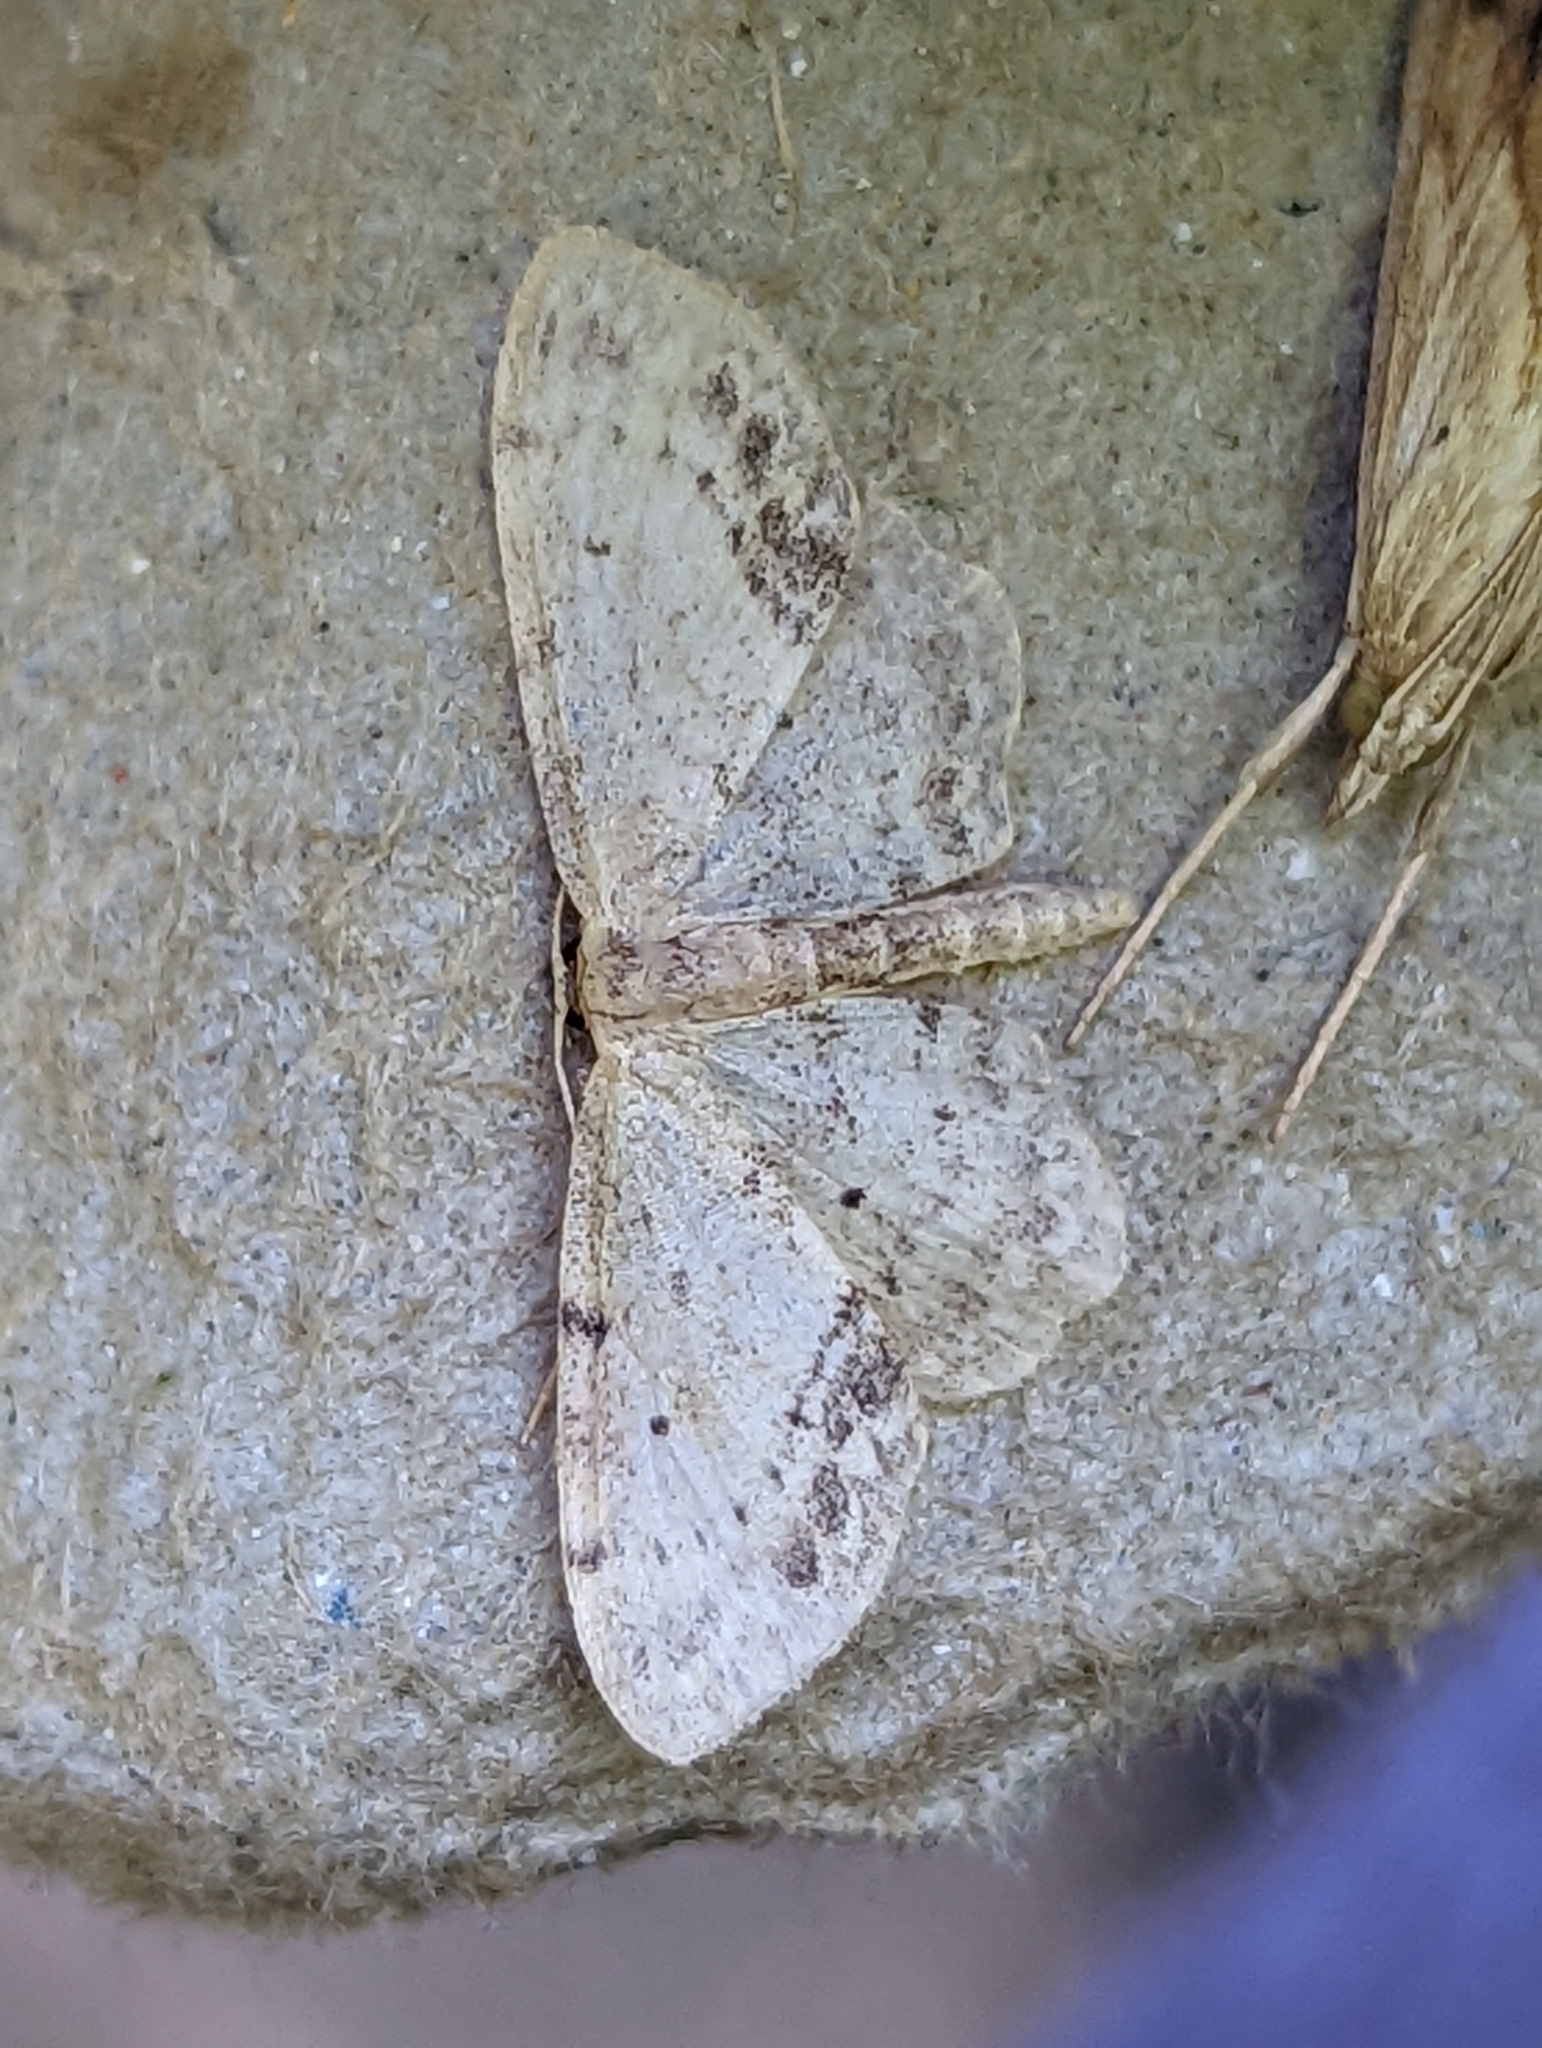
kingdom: Animalia
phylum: Arthropoda
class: Insecta
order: Lepidoptera
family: Geometridae
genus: Idaea
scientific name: Idaea dimidiata
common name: Single-dotted wave
